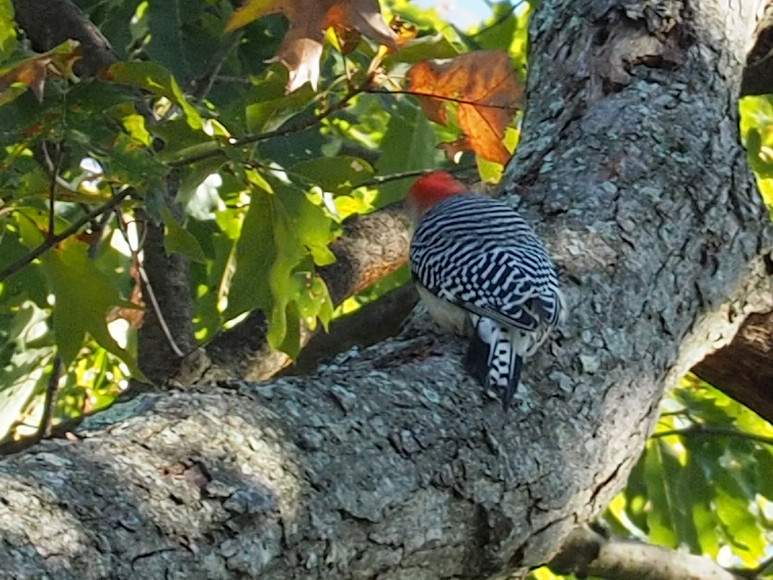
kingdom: Animalia
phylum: Chordata
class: Aves
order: Piciformes
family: Picidae
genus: Melanerpes
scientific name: Melanerpes carolinus
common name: Red-bellied woodpecker
